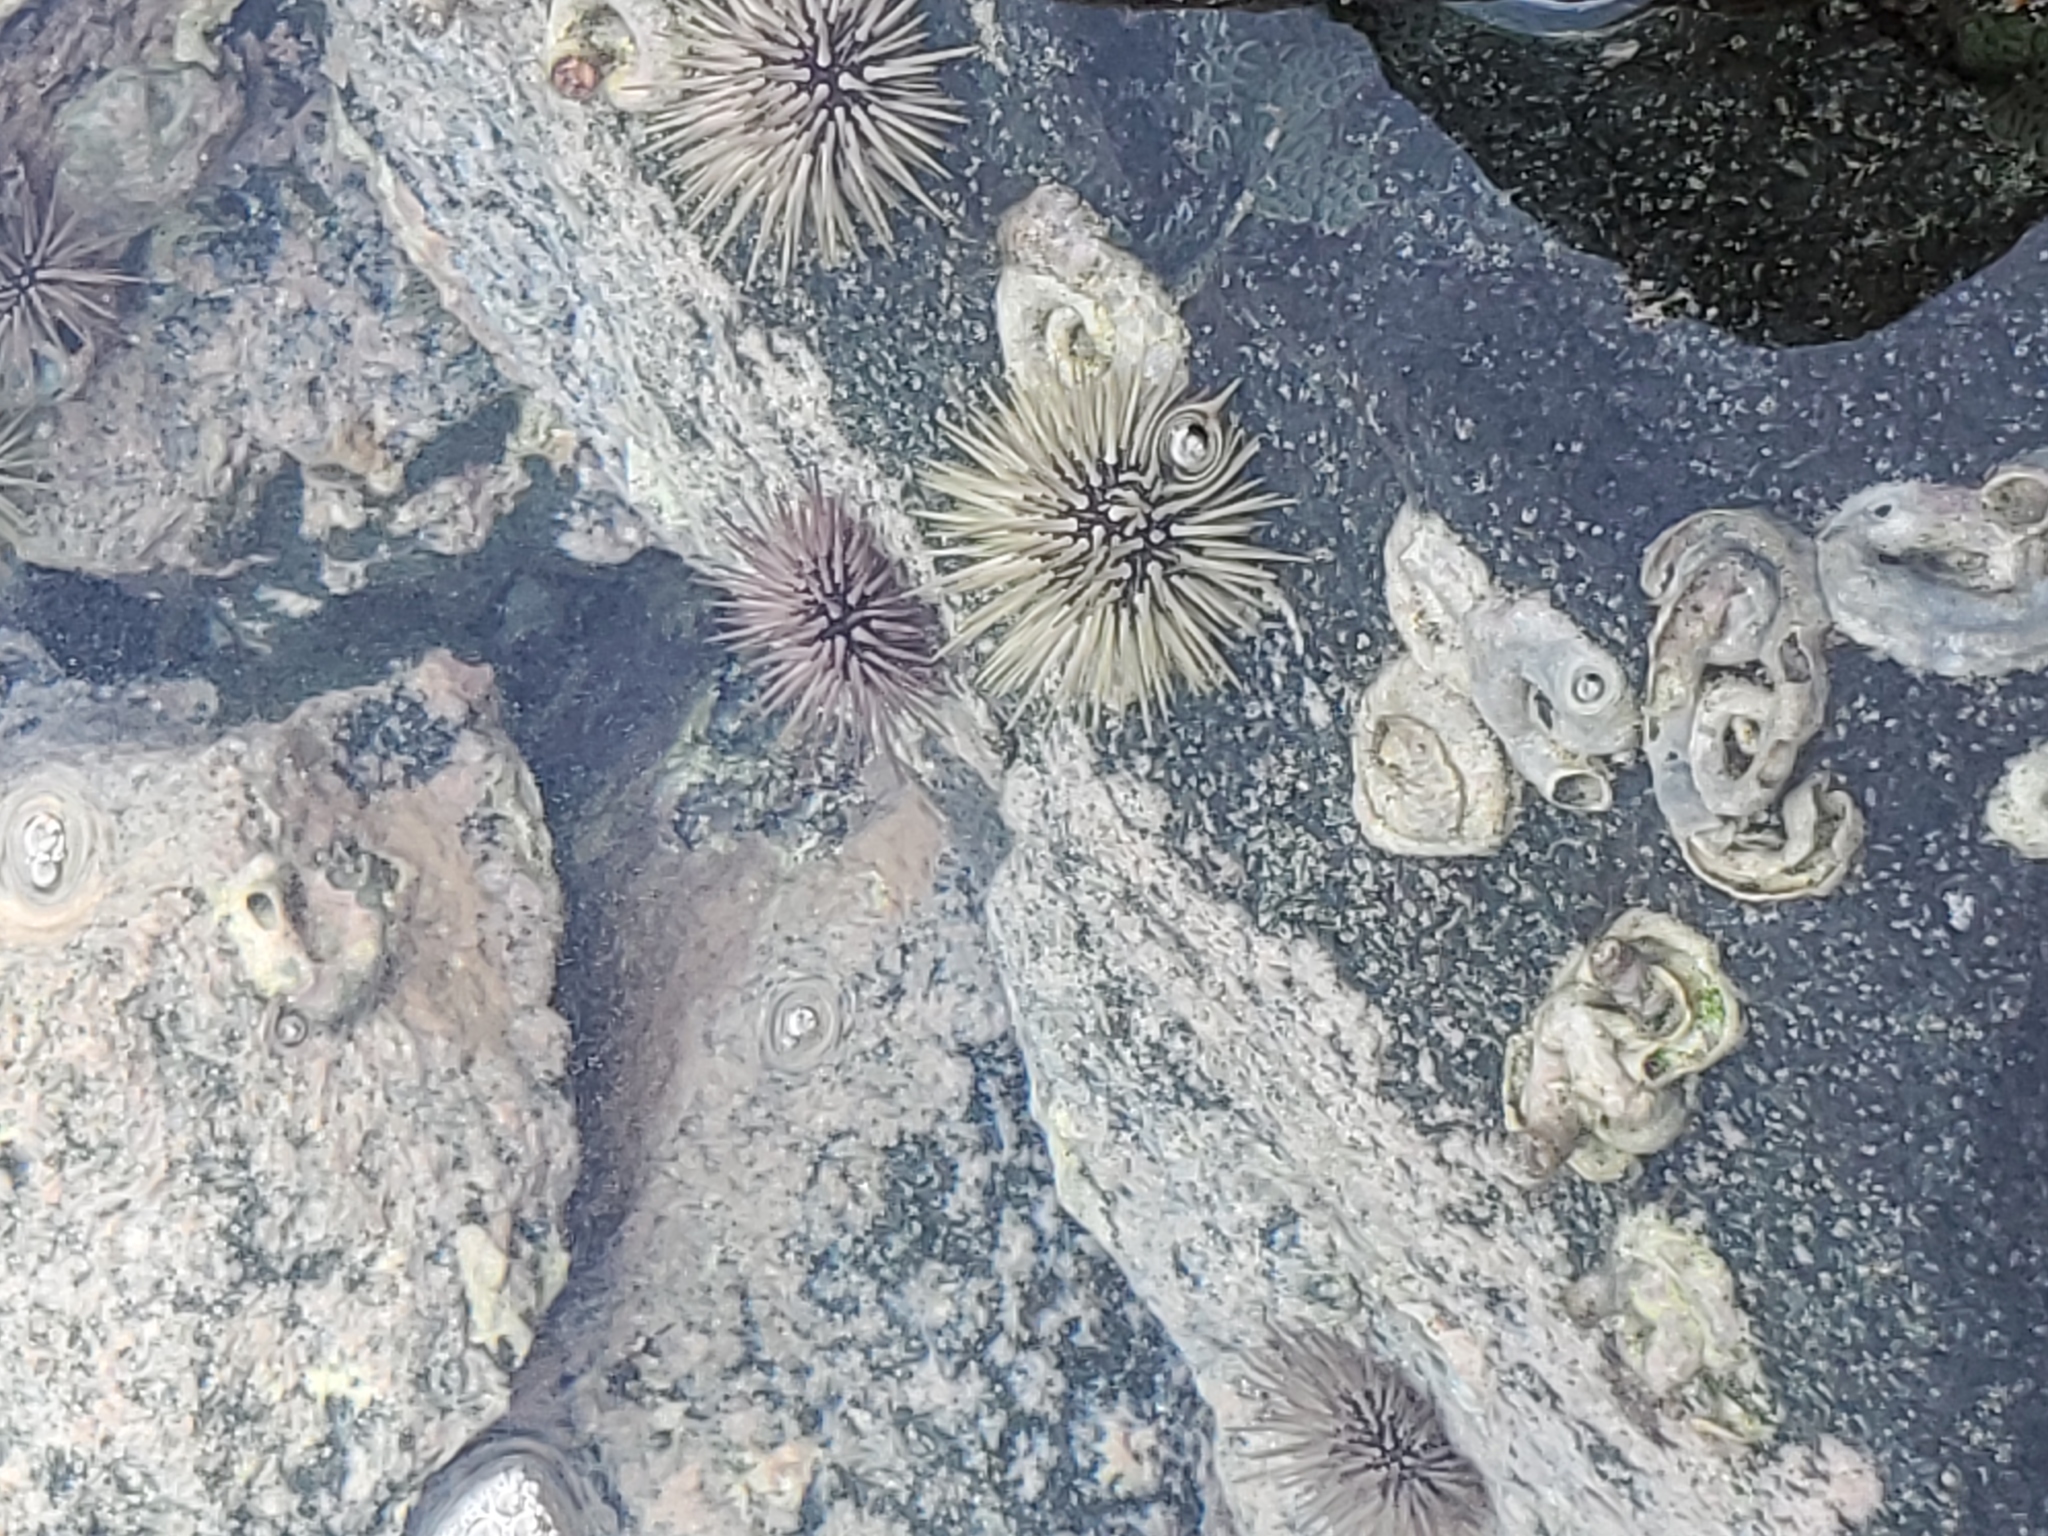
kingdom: Animalia
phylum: Echinodermata
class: Echinoidea
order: Camarodonta
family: Echinometridae
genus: Echinometra
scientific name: Echinometra mathaei
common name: Rock-boring urchin
